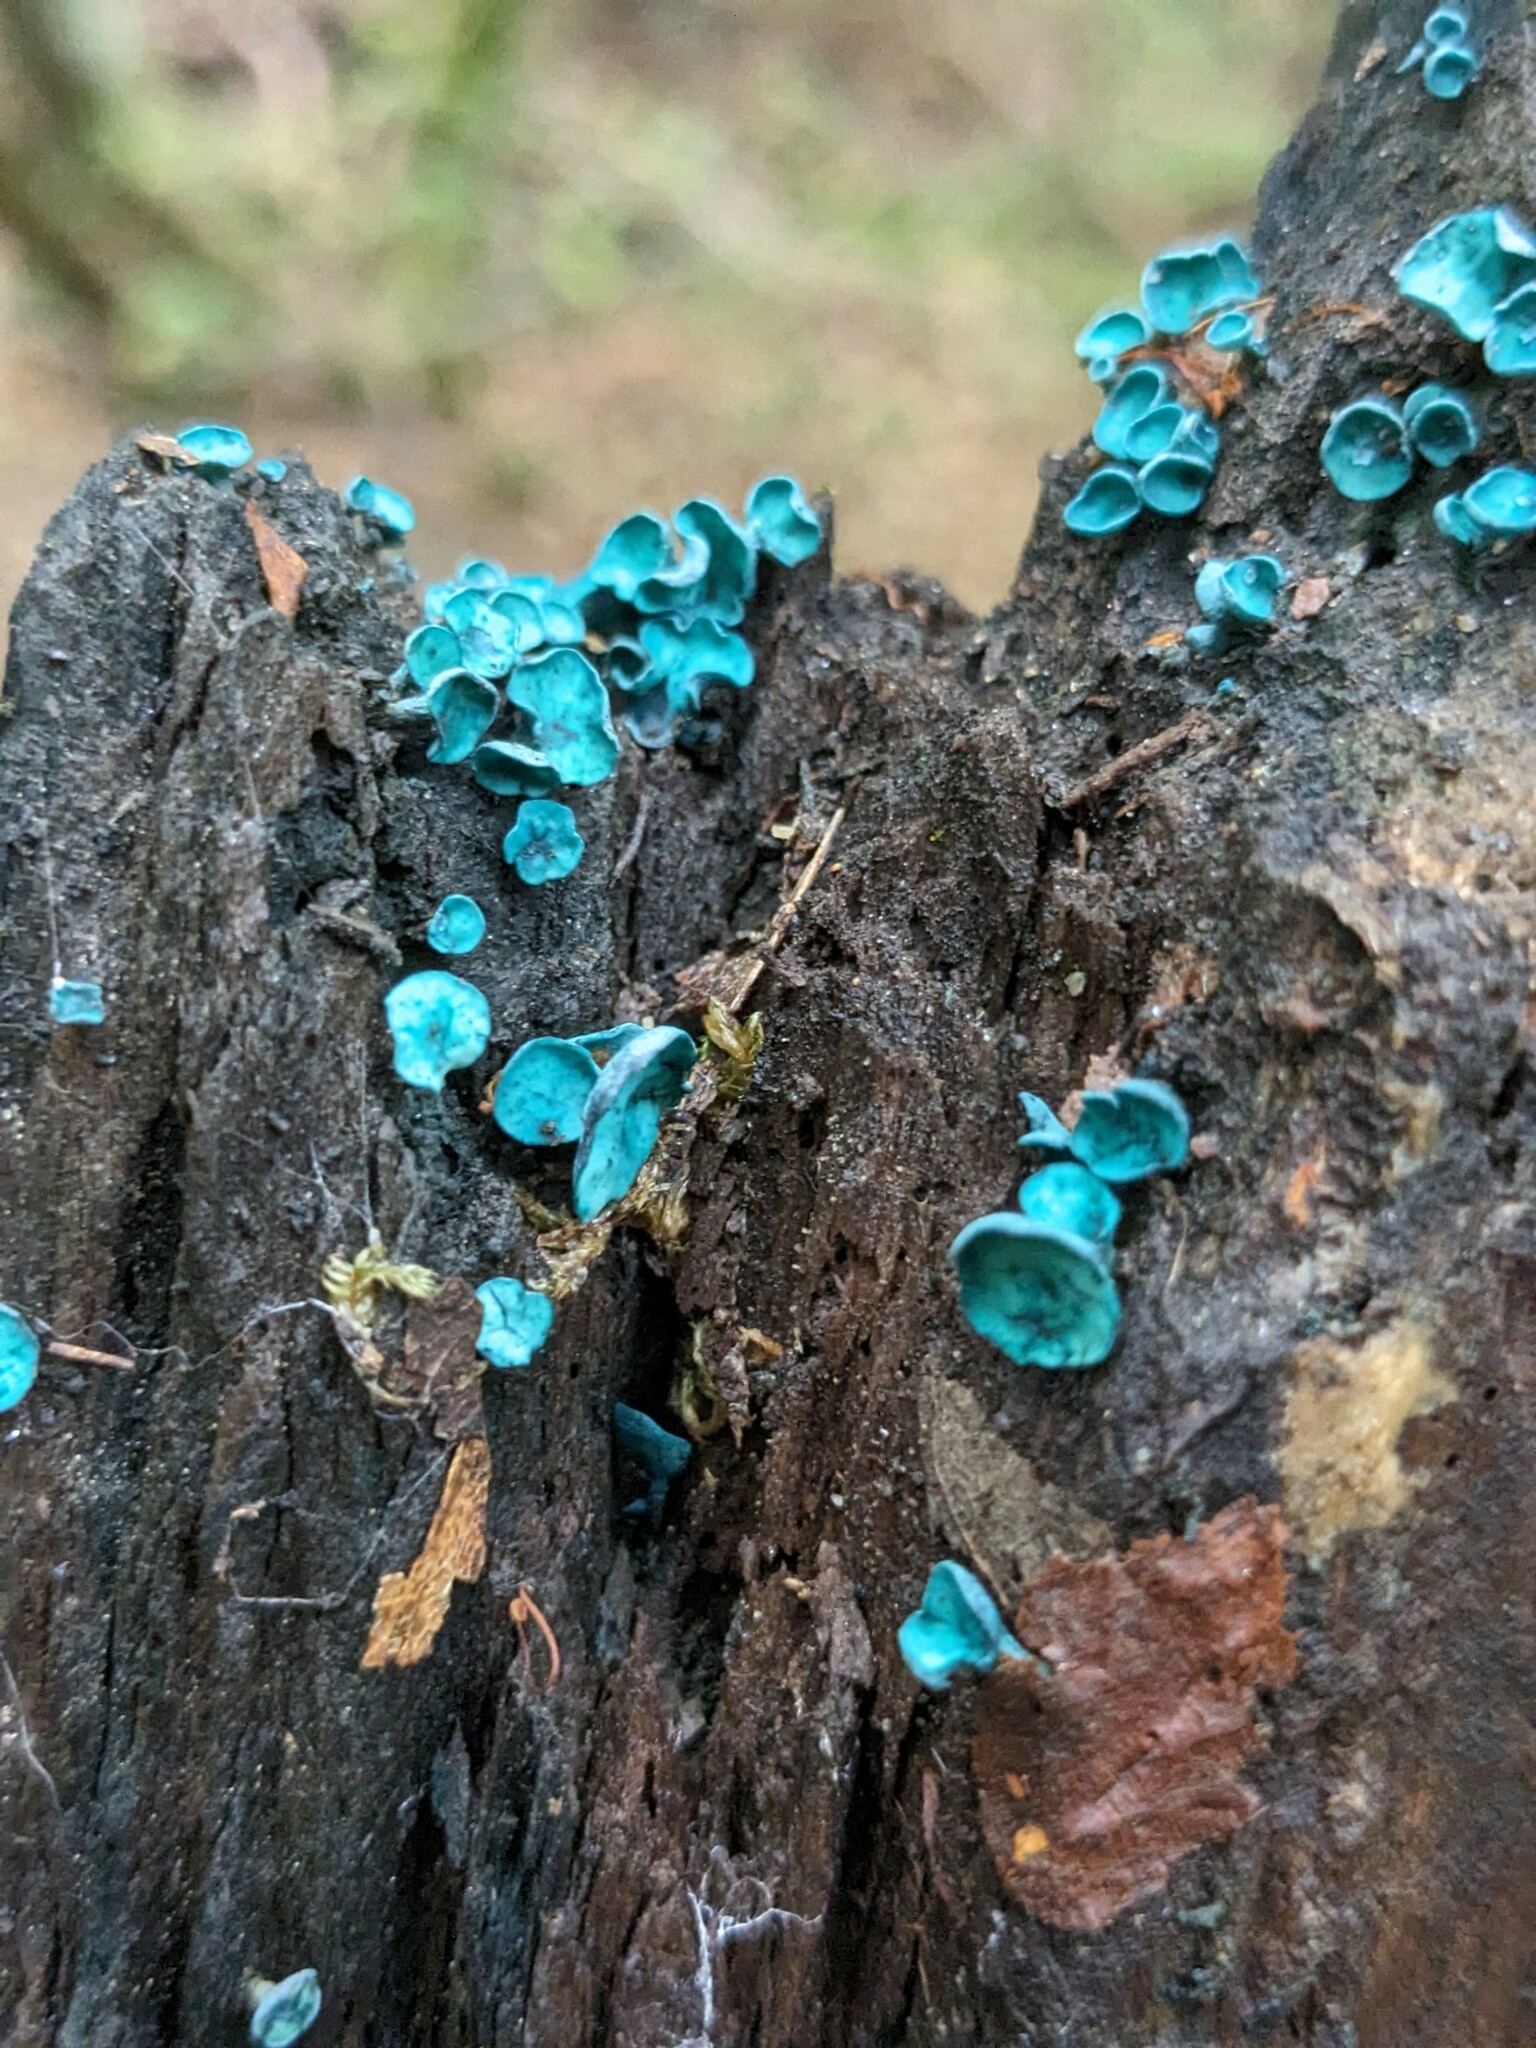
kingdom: Fungi
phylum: Ascomycota
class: Leotiomycetes
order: Helotiales
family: Chlorociboriaceae
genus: Chlorociboria
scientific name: Chlorociboria aeruginascens
